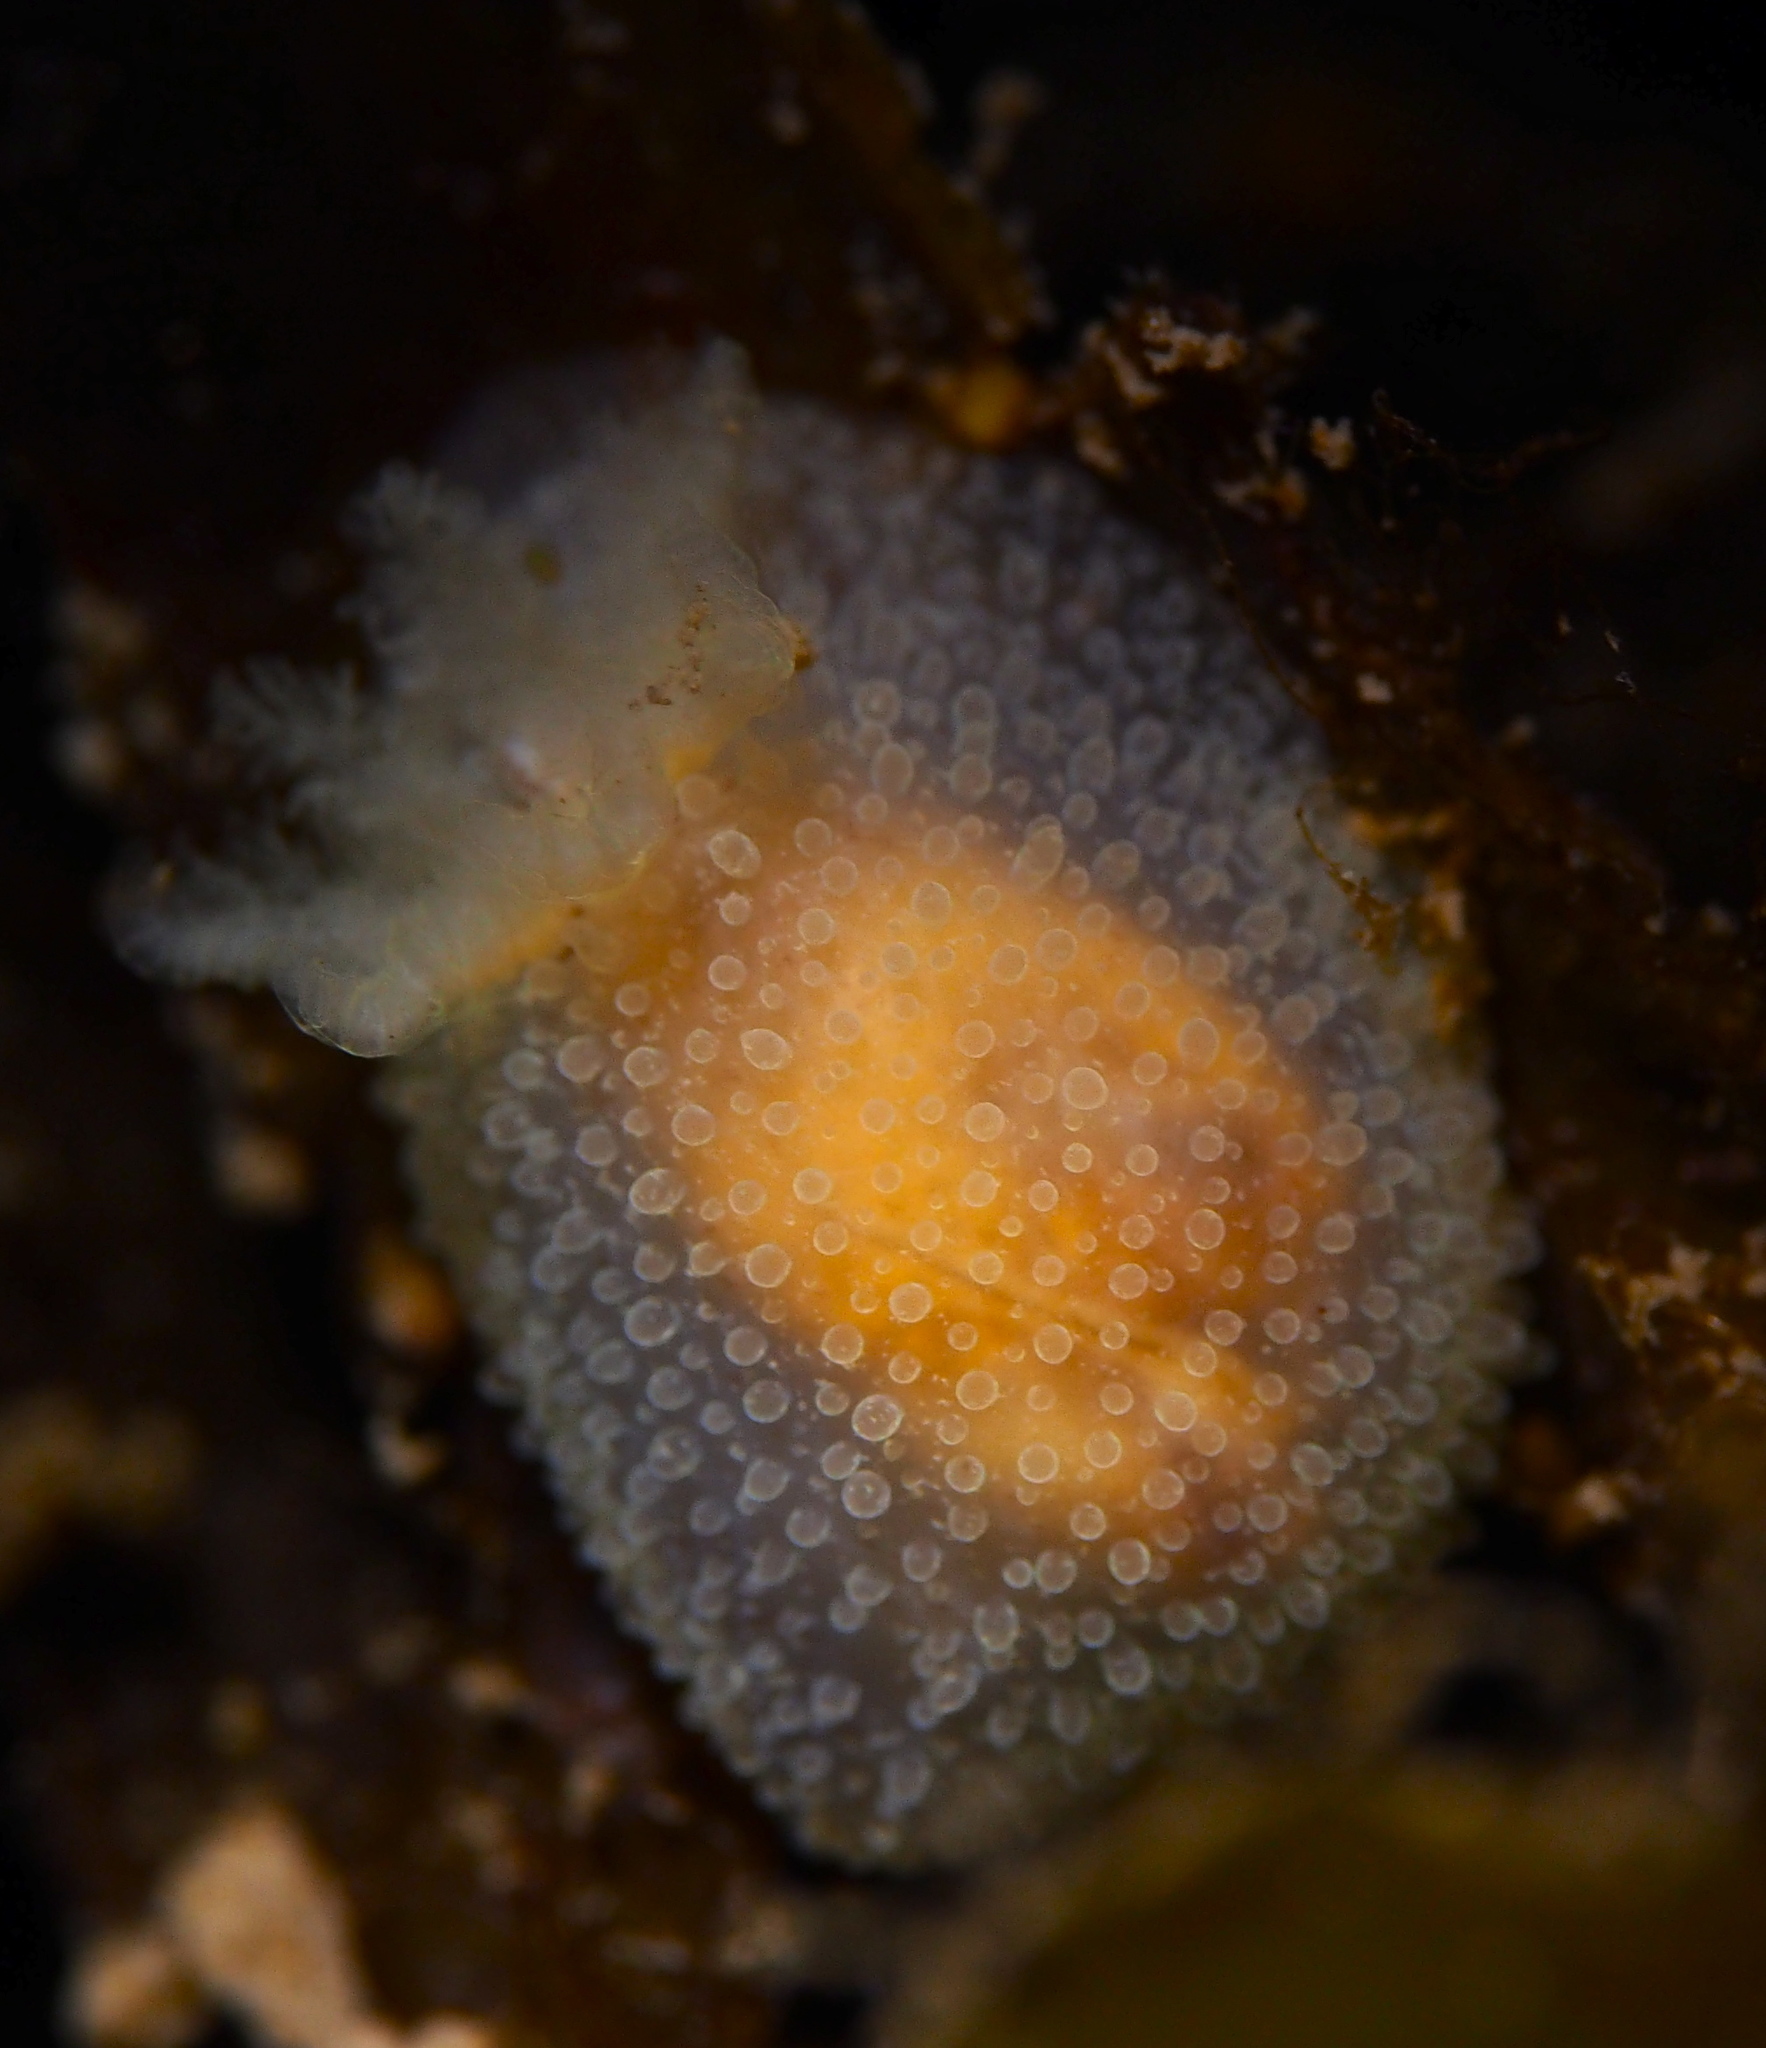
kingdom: Animalia
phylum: Mollusca
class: Gastropoda
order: Nudibranchia
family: Onchidorididae
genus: Acanthodoris
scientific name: Acanthodoris pilosa
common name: Hairy spiny doris
